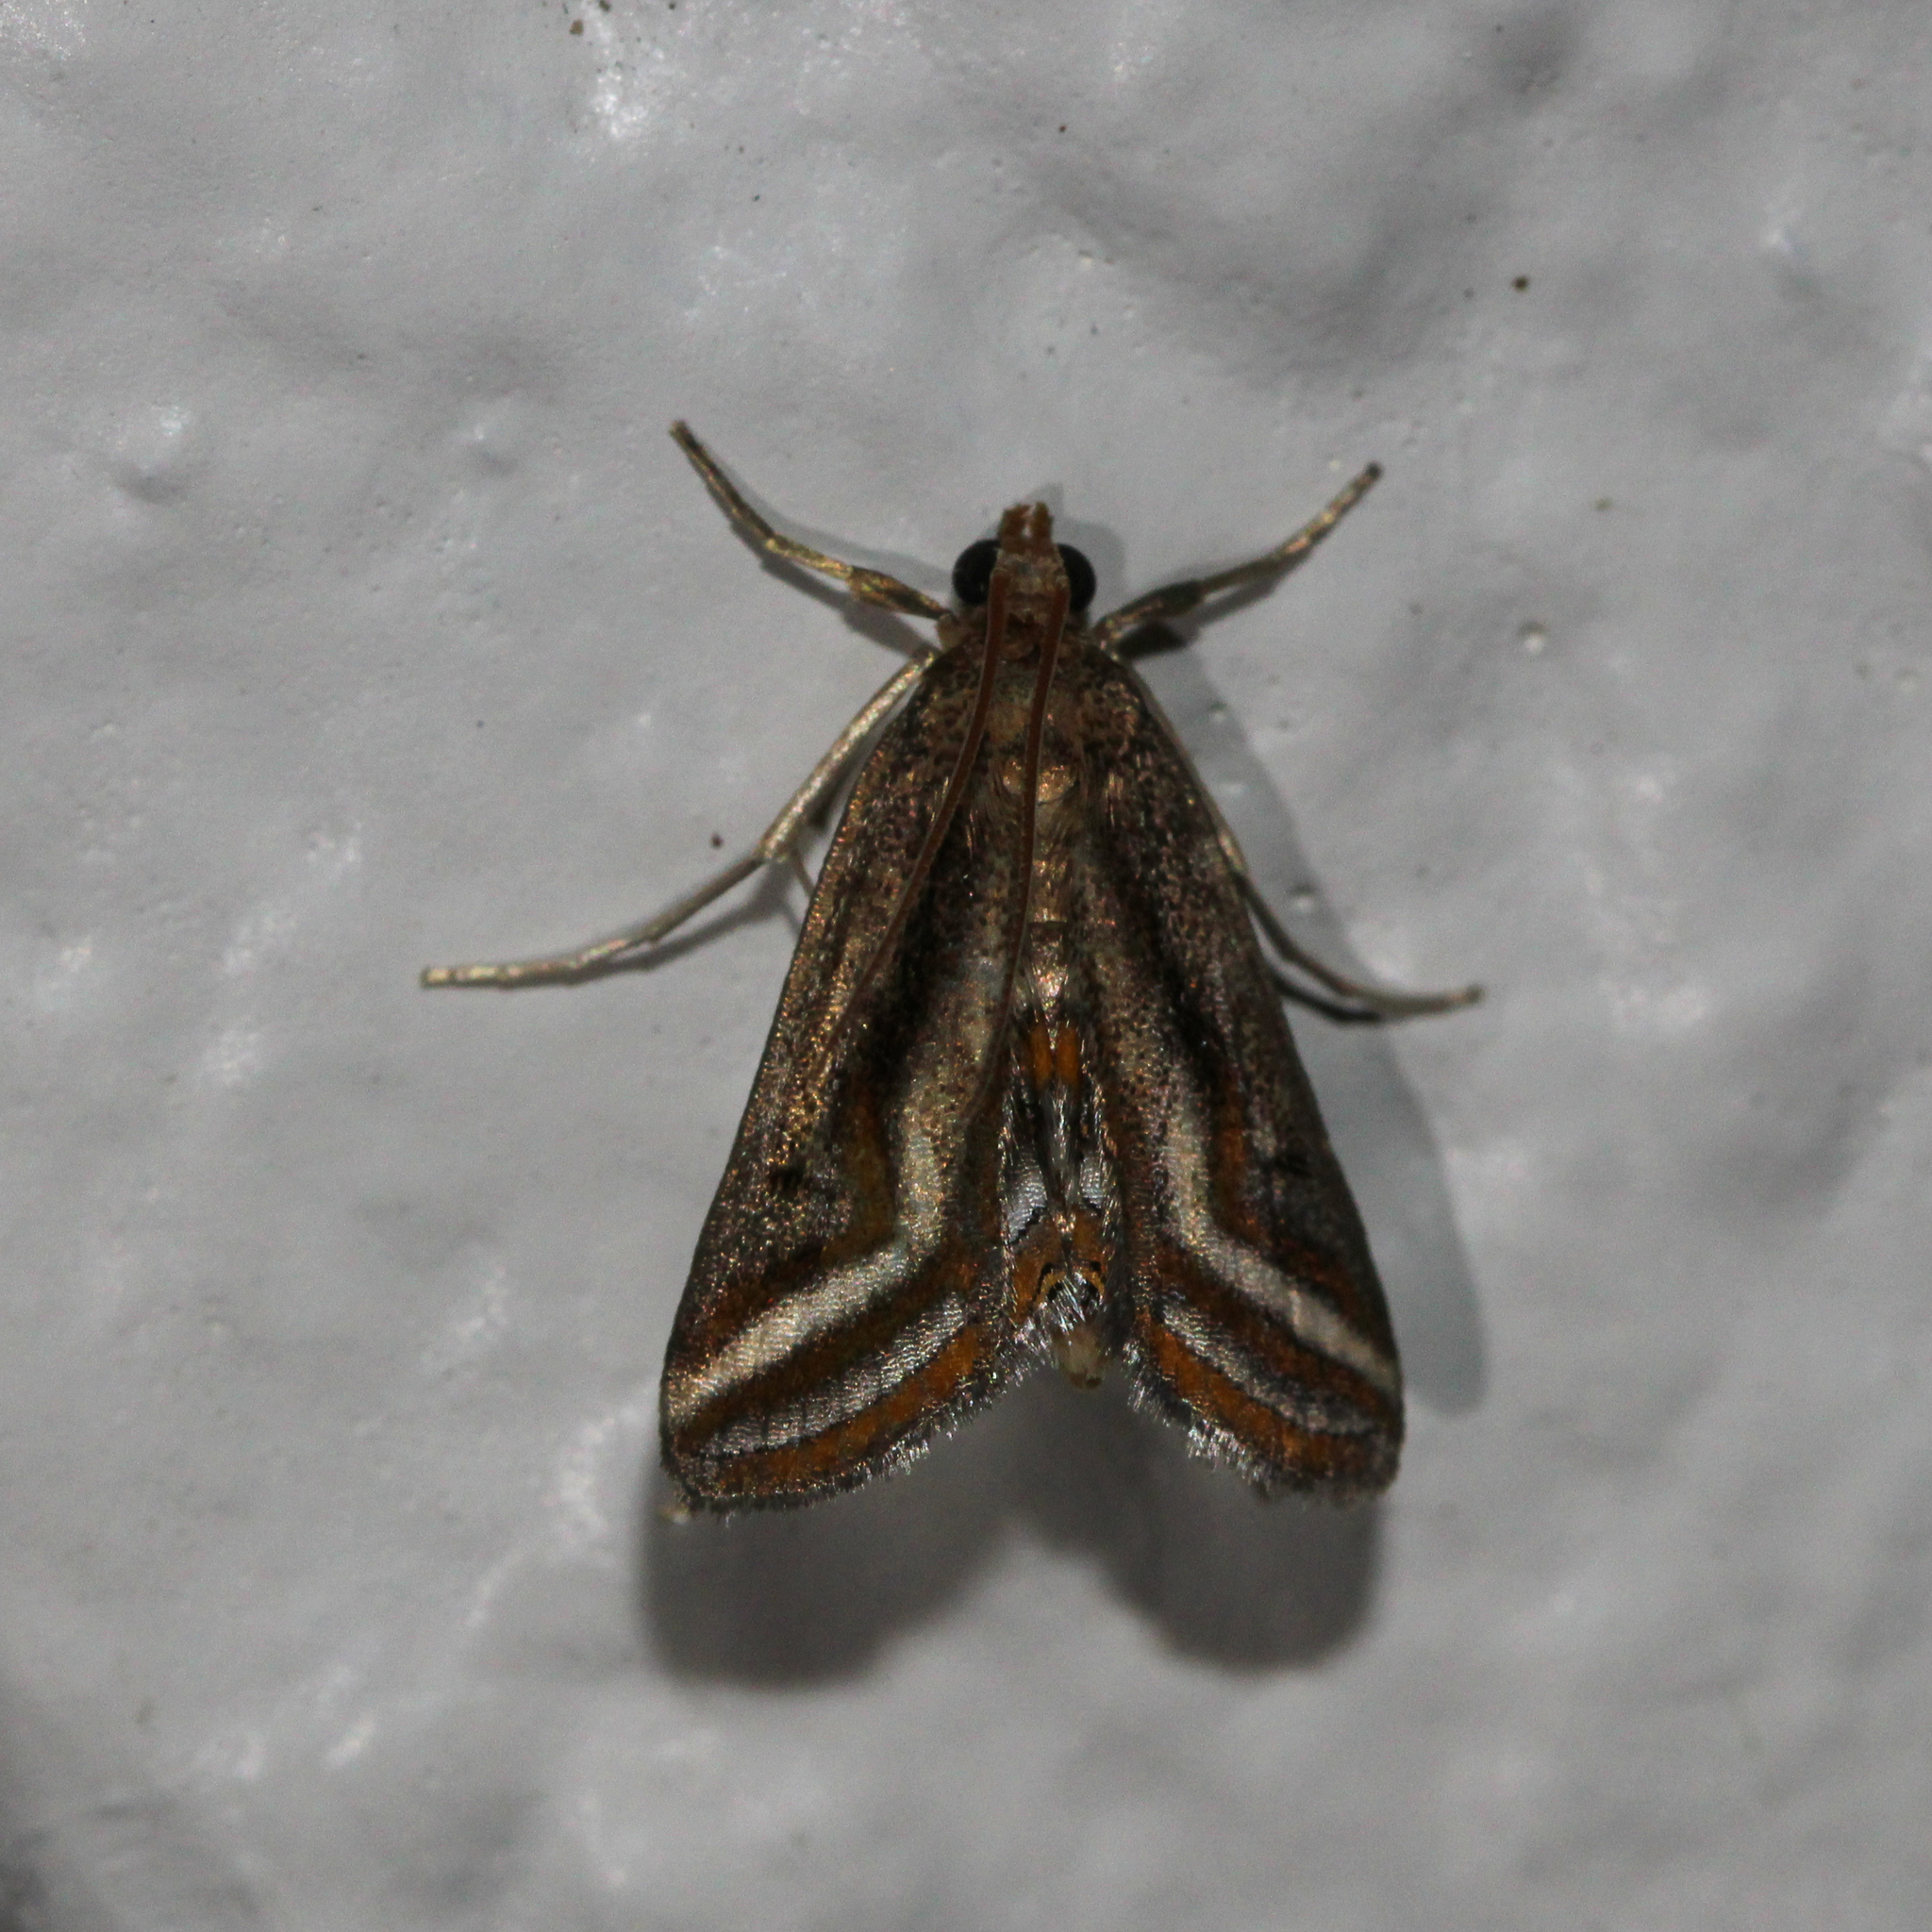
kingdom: Animalia
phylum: Arthropoda
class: Insecta
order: Lepidoptera
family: Crambidae
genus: Parapoynx
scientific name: Parapoynx seminealis
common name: Floating-heart waterlily leafcutter
